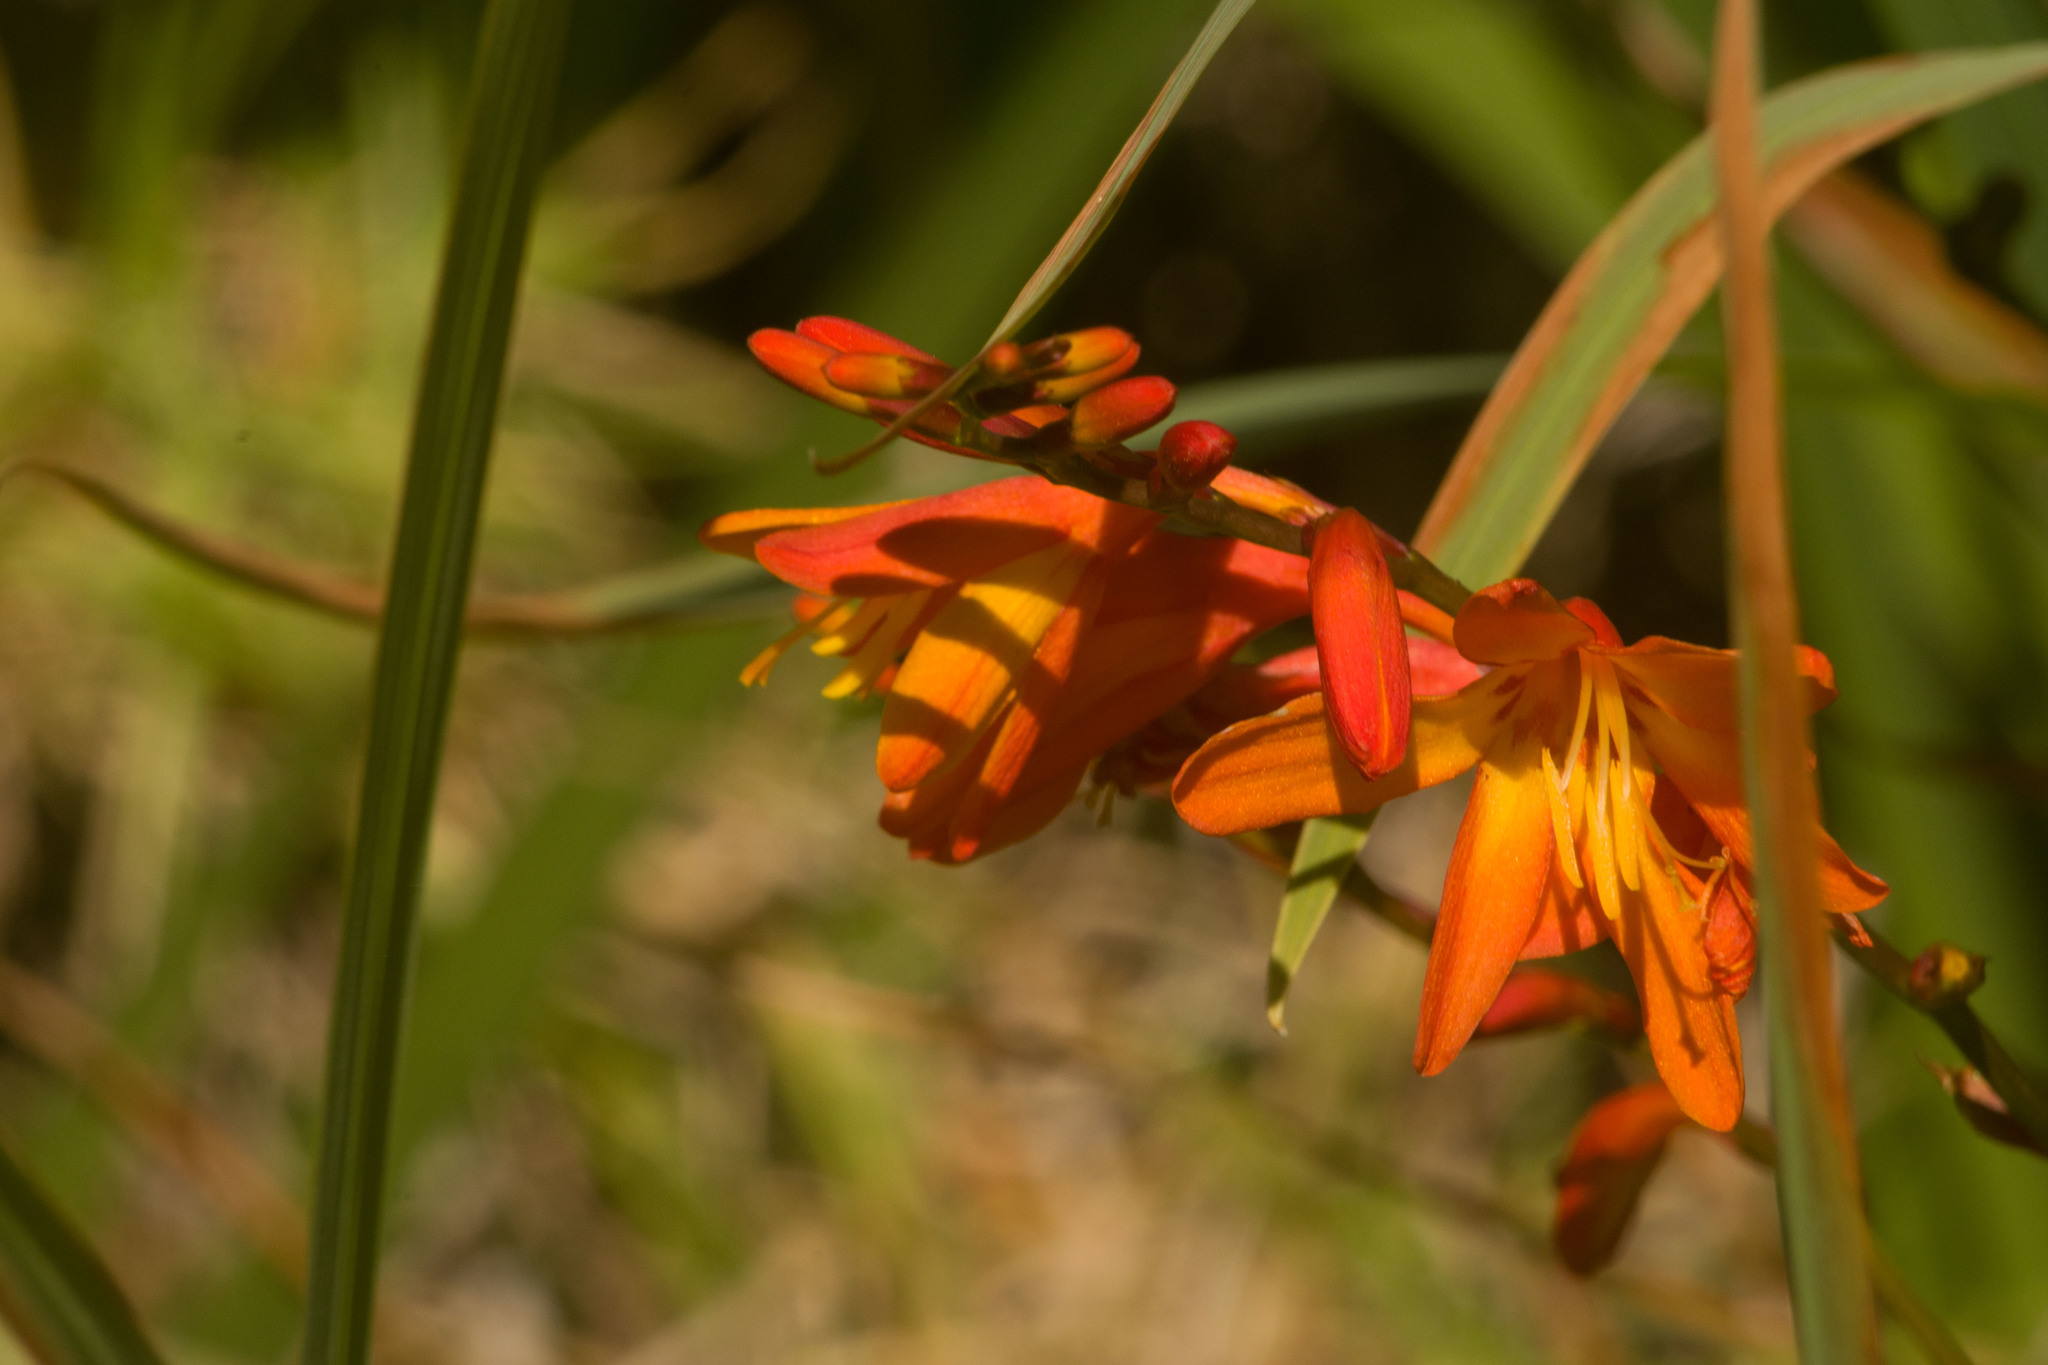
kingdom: Plantae
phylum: Tracheophyta
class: Liliopsida
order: Asparagales
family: Iridaceae
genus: Crocosmia
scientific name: Crocosmia crocosmiiflora
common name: Montbretia
